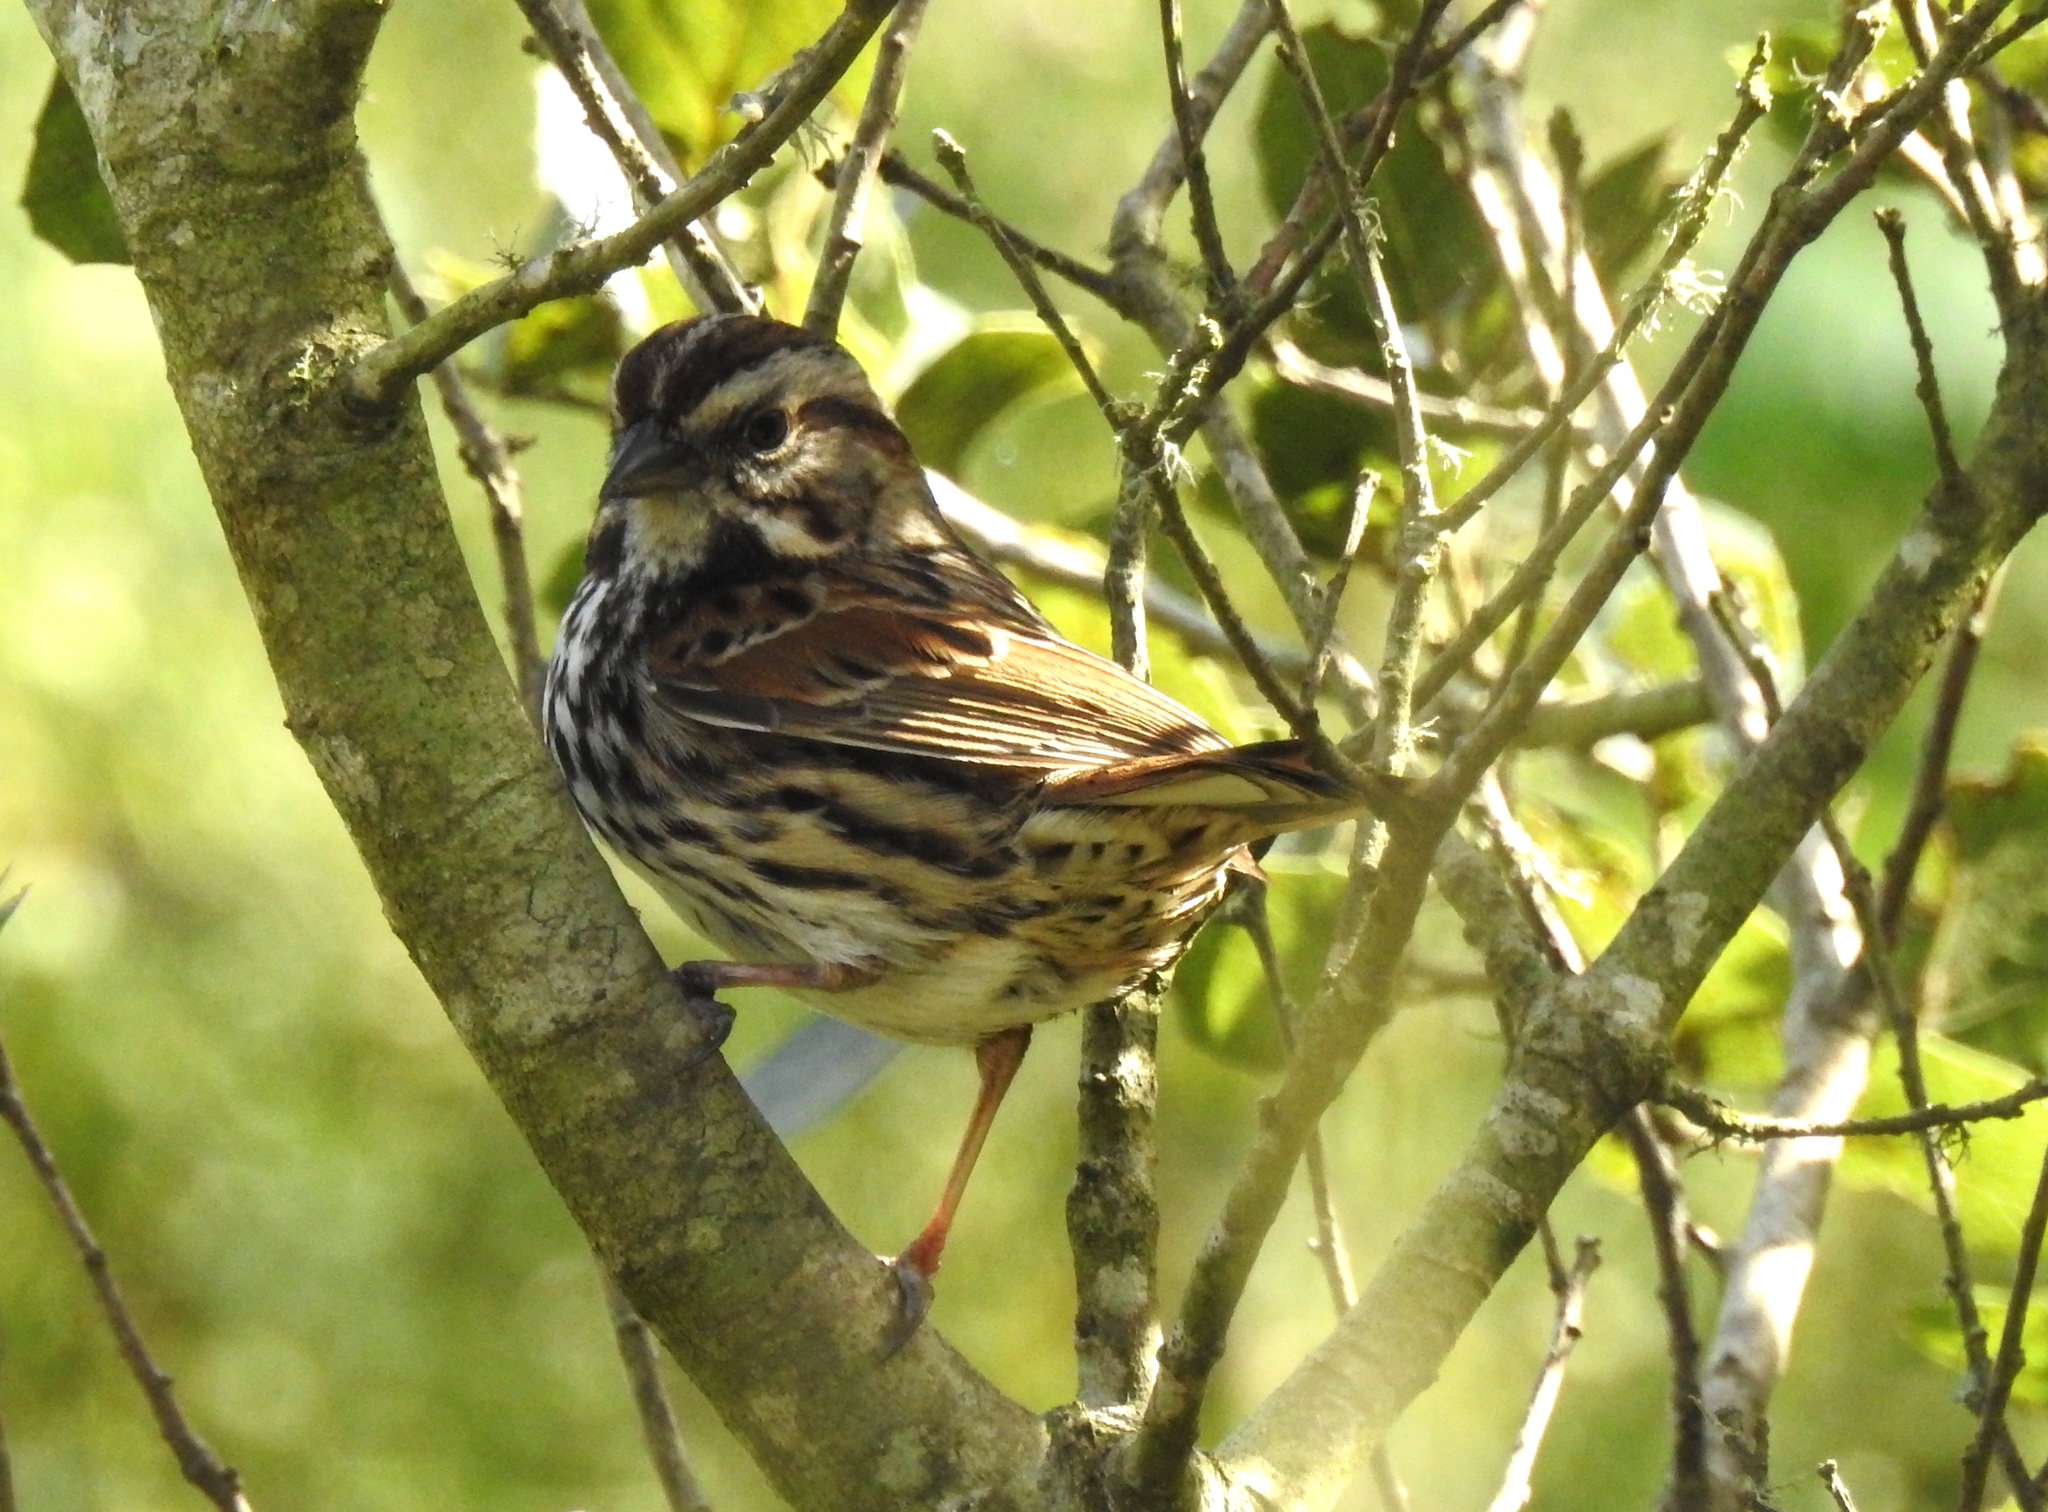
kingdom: Animalia
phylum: Chordata
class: Aves
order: Passeriformes
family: Passerellidae
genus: Melospiza
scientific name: Melospiza melodia
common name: Song sparrow
